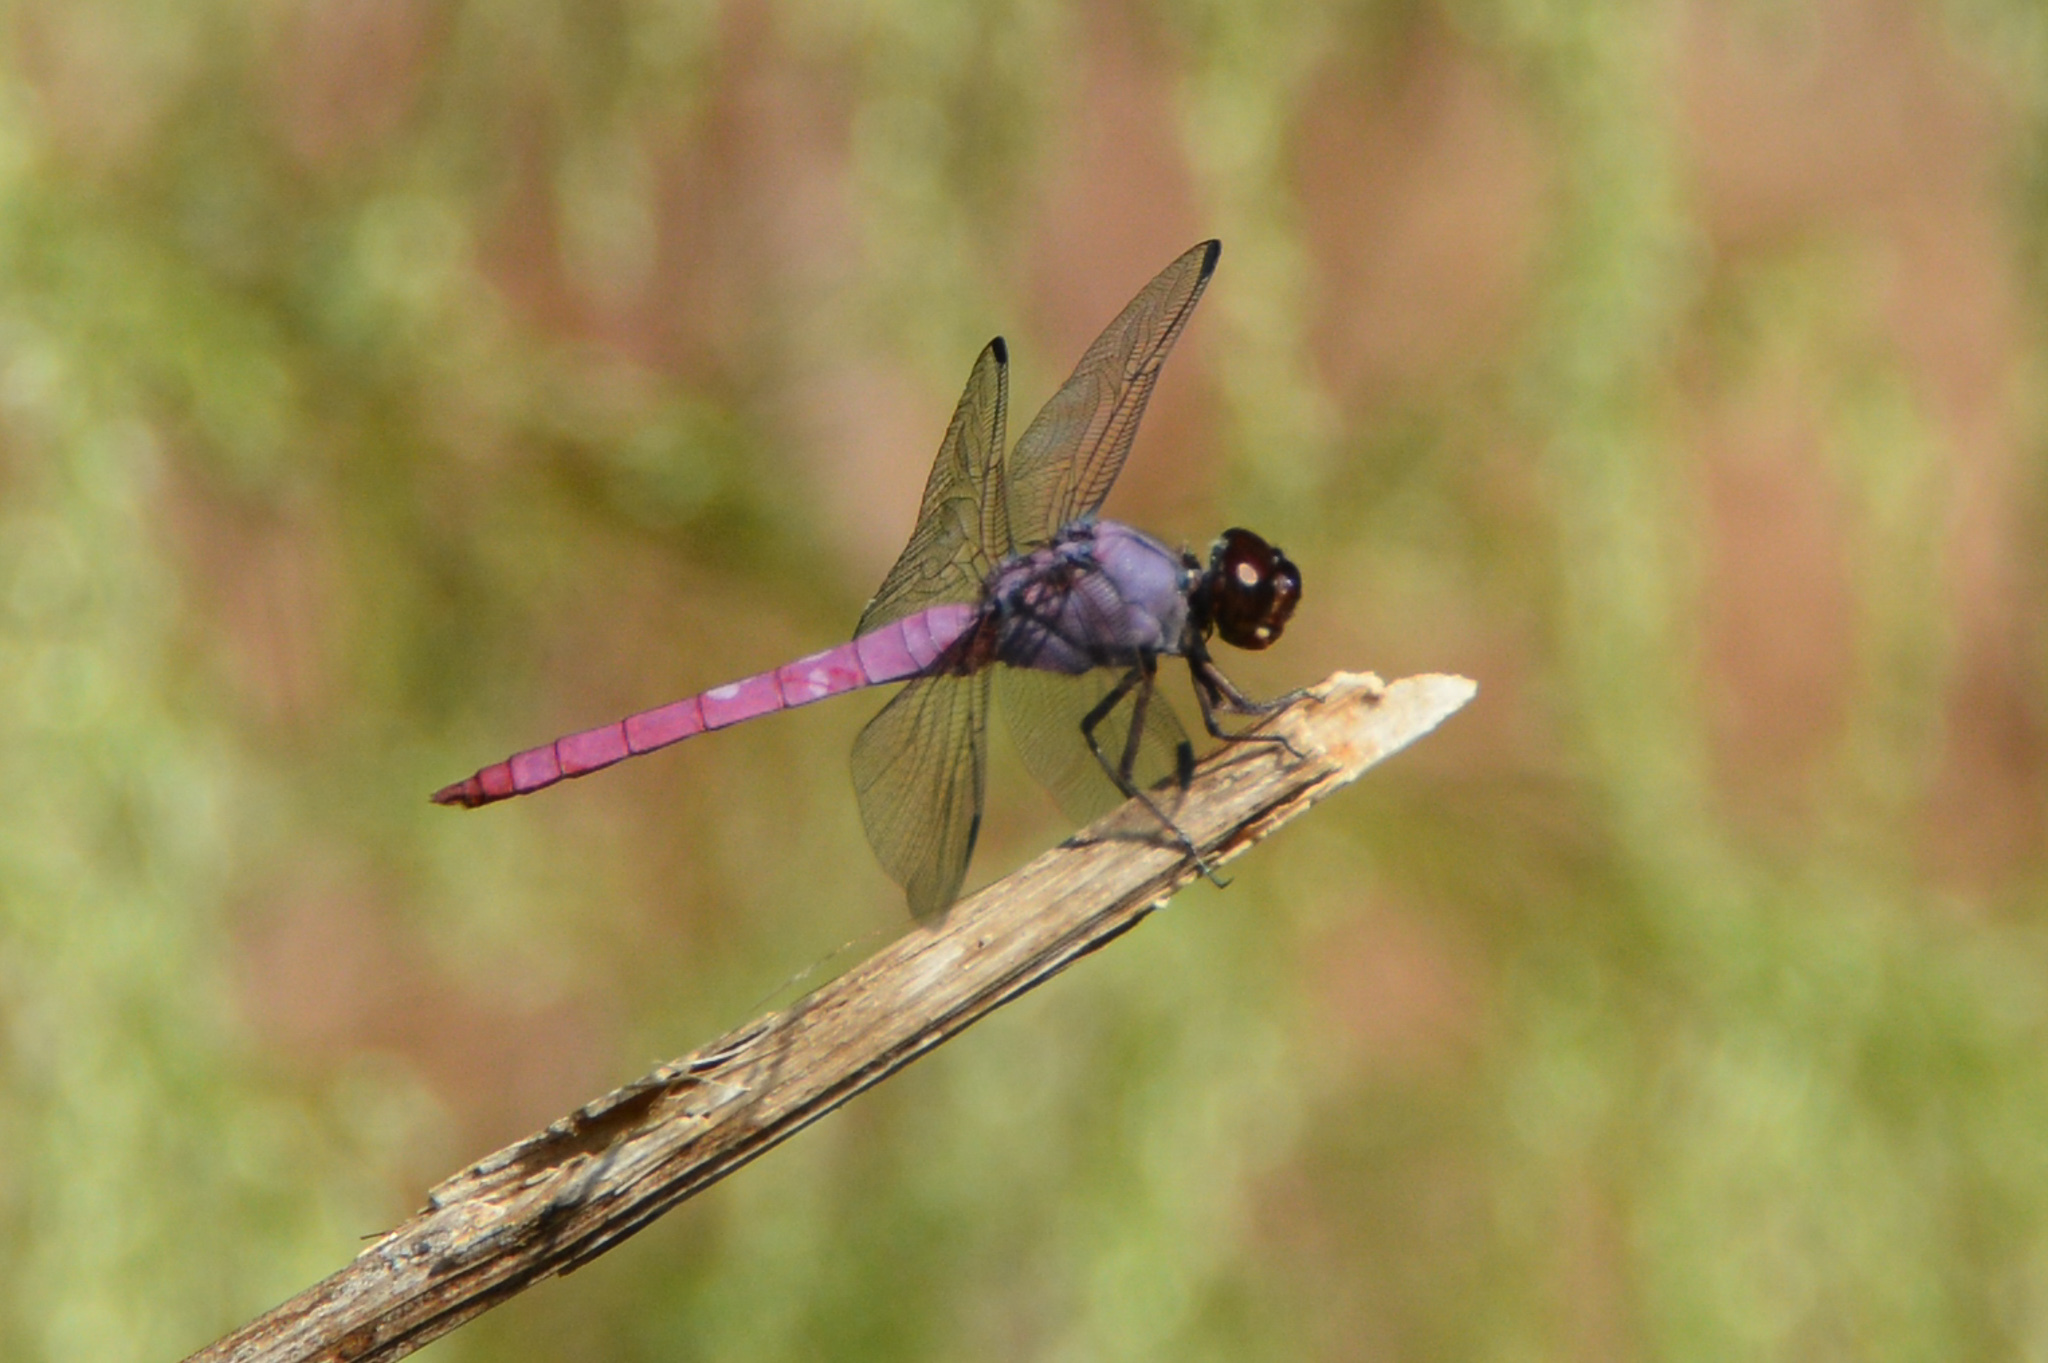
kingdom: Animalia
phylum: Arthropoda
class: Insecta
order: Odonata
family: Libellulidae
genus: Orthemis
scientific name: Orthemis ferruginea
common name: Roseate skimmer
